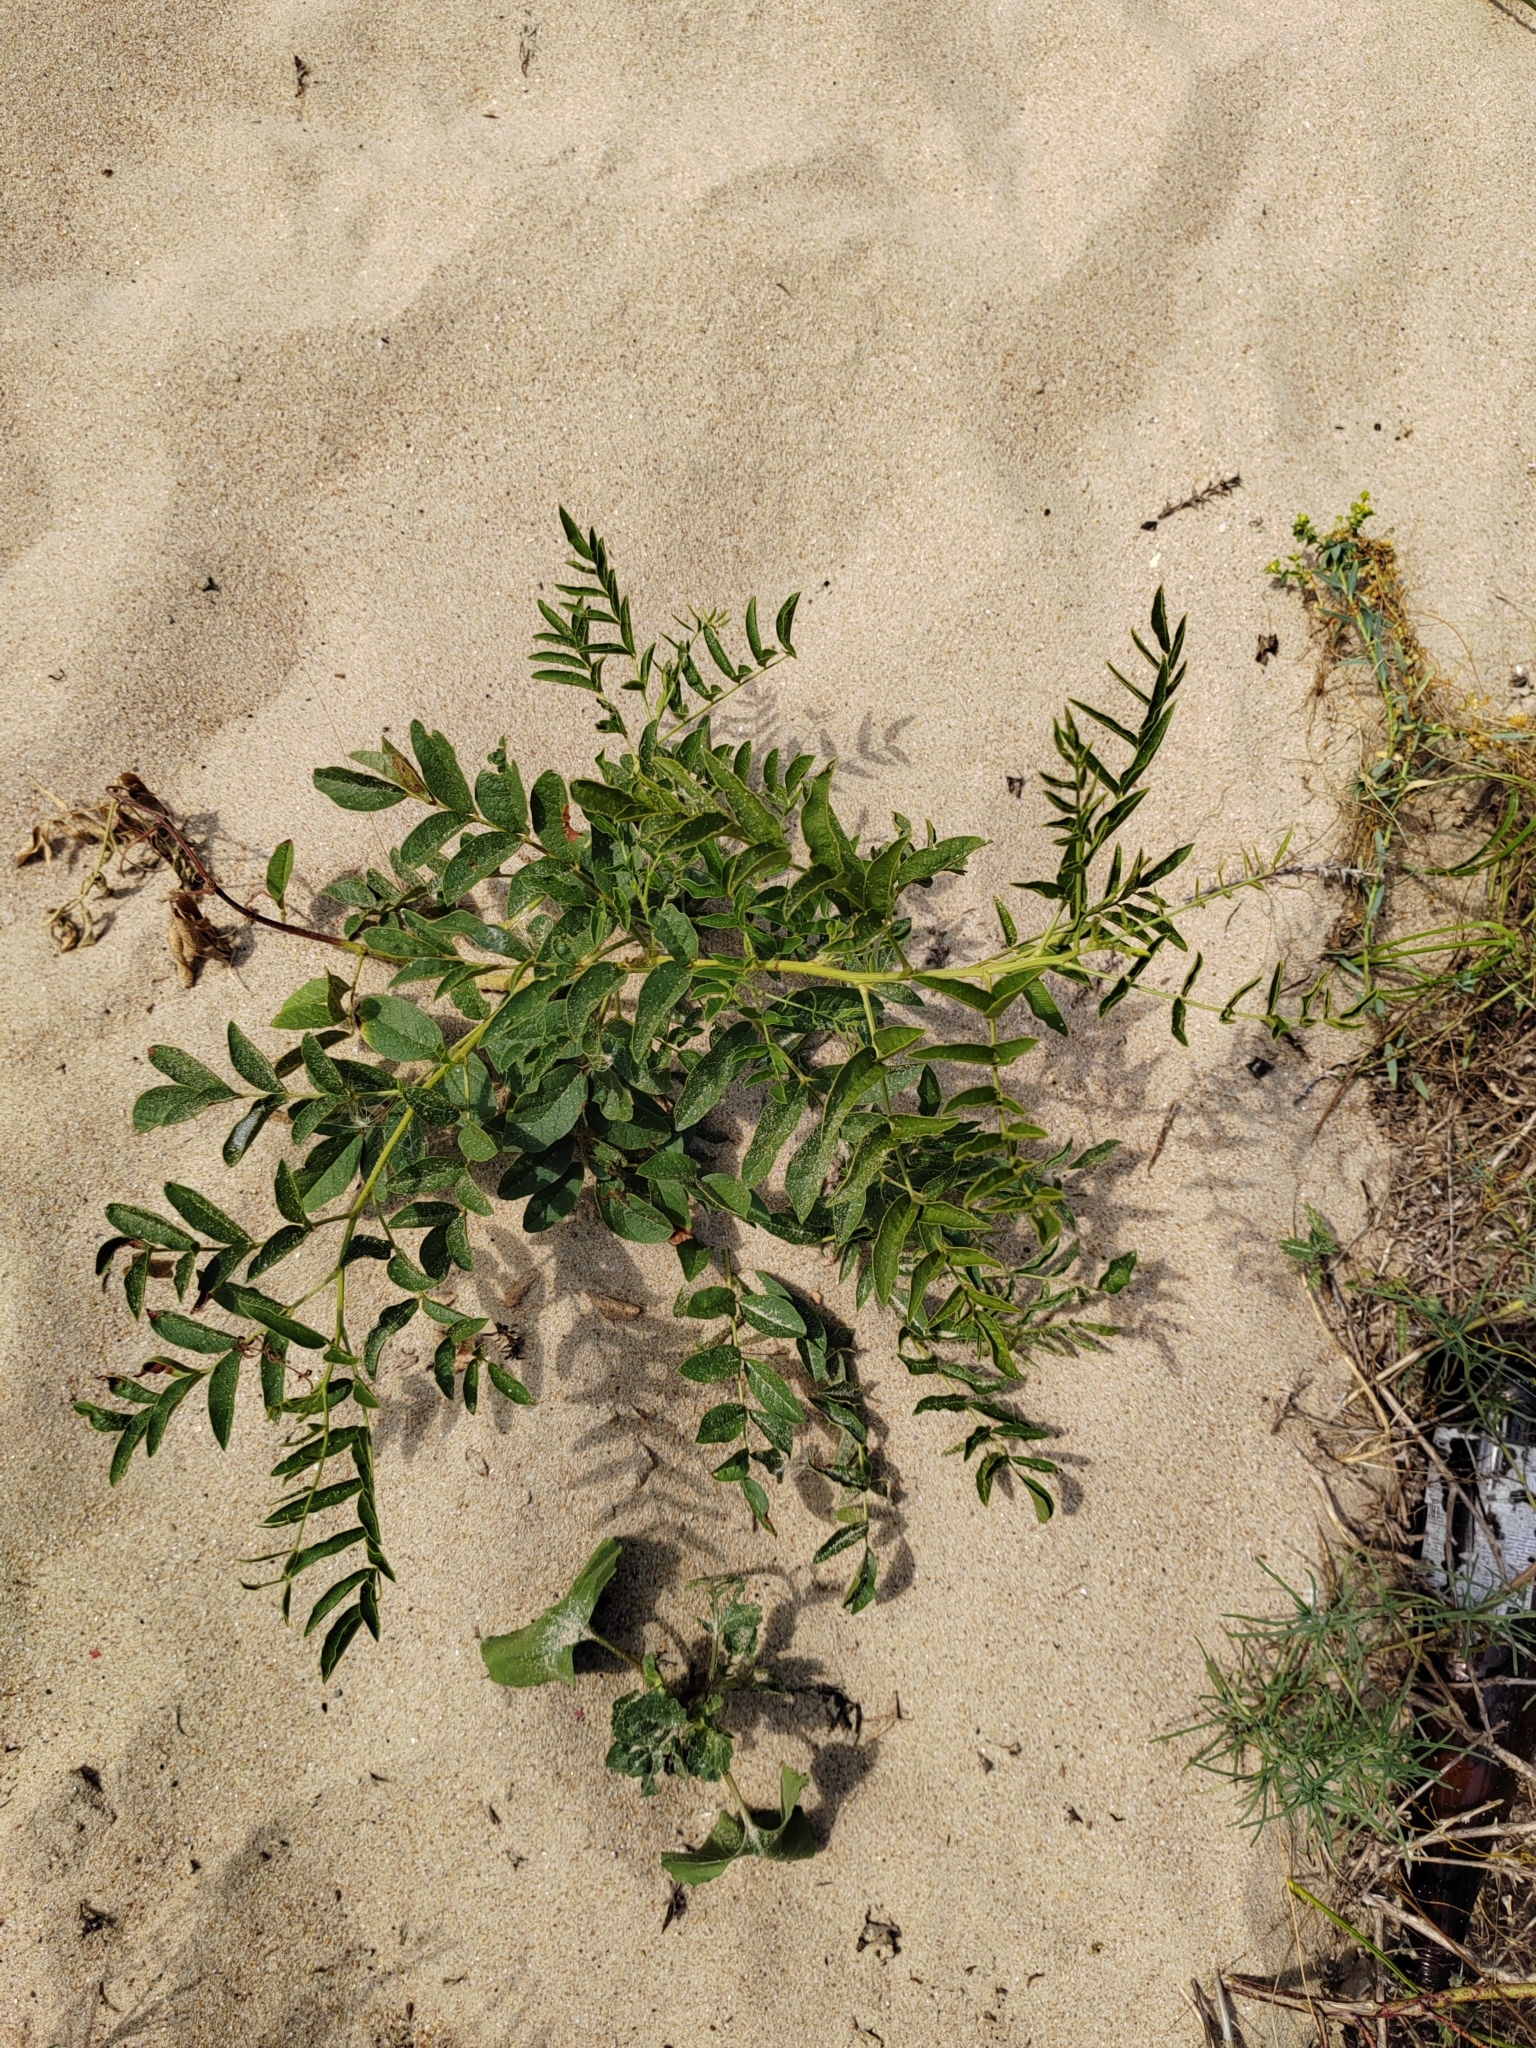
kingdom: Plantae
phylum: Tracheophyta
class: Magnoliopsida
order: Fabales
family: Fabaceae
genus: Glycyrrhiza
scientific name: Glycyrrhiza glabra
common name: Liquorice
